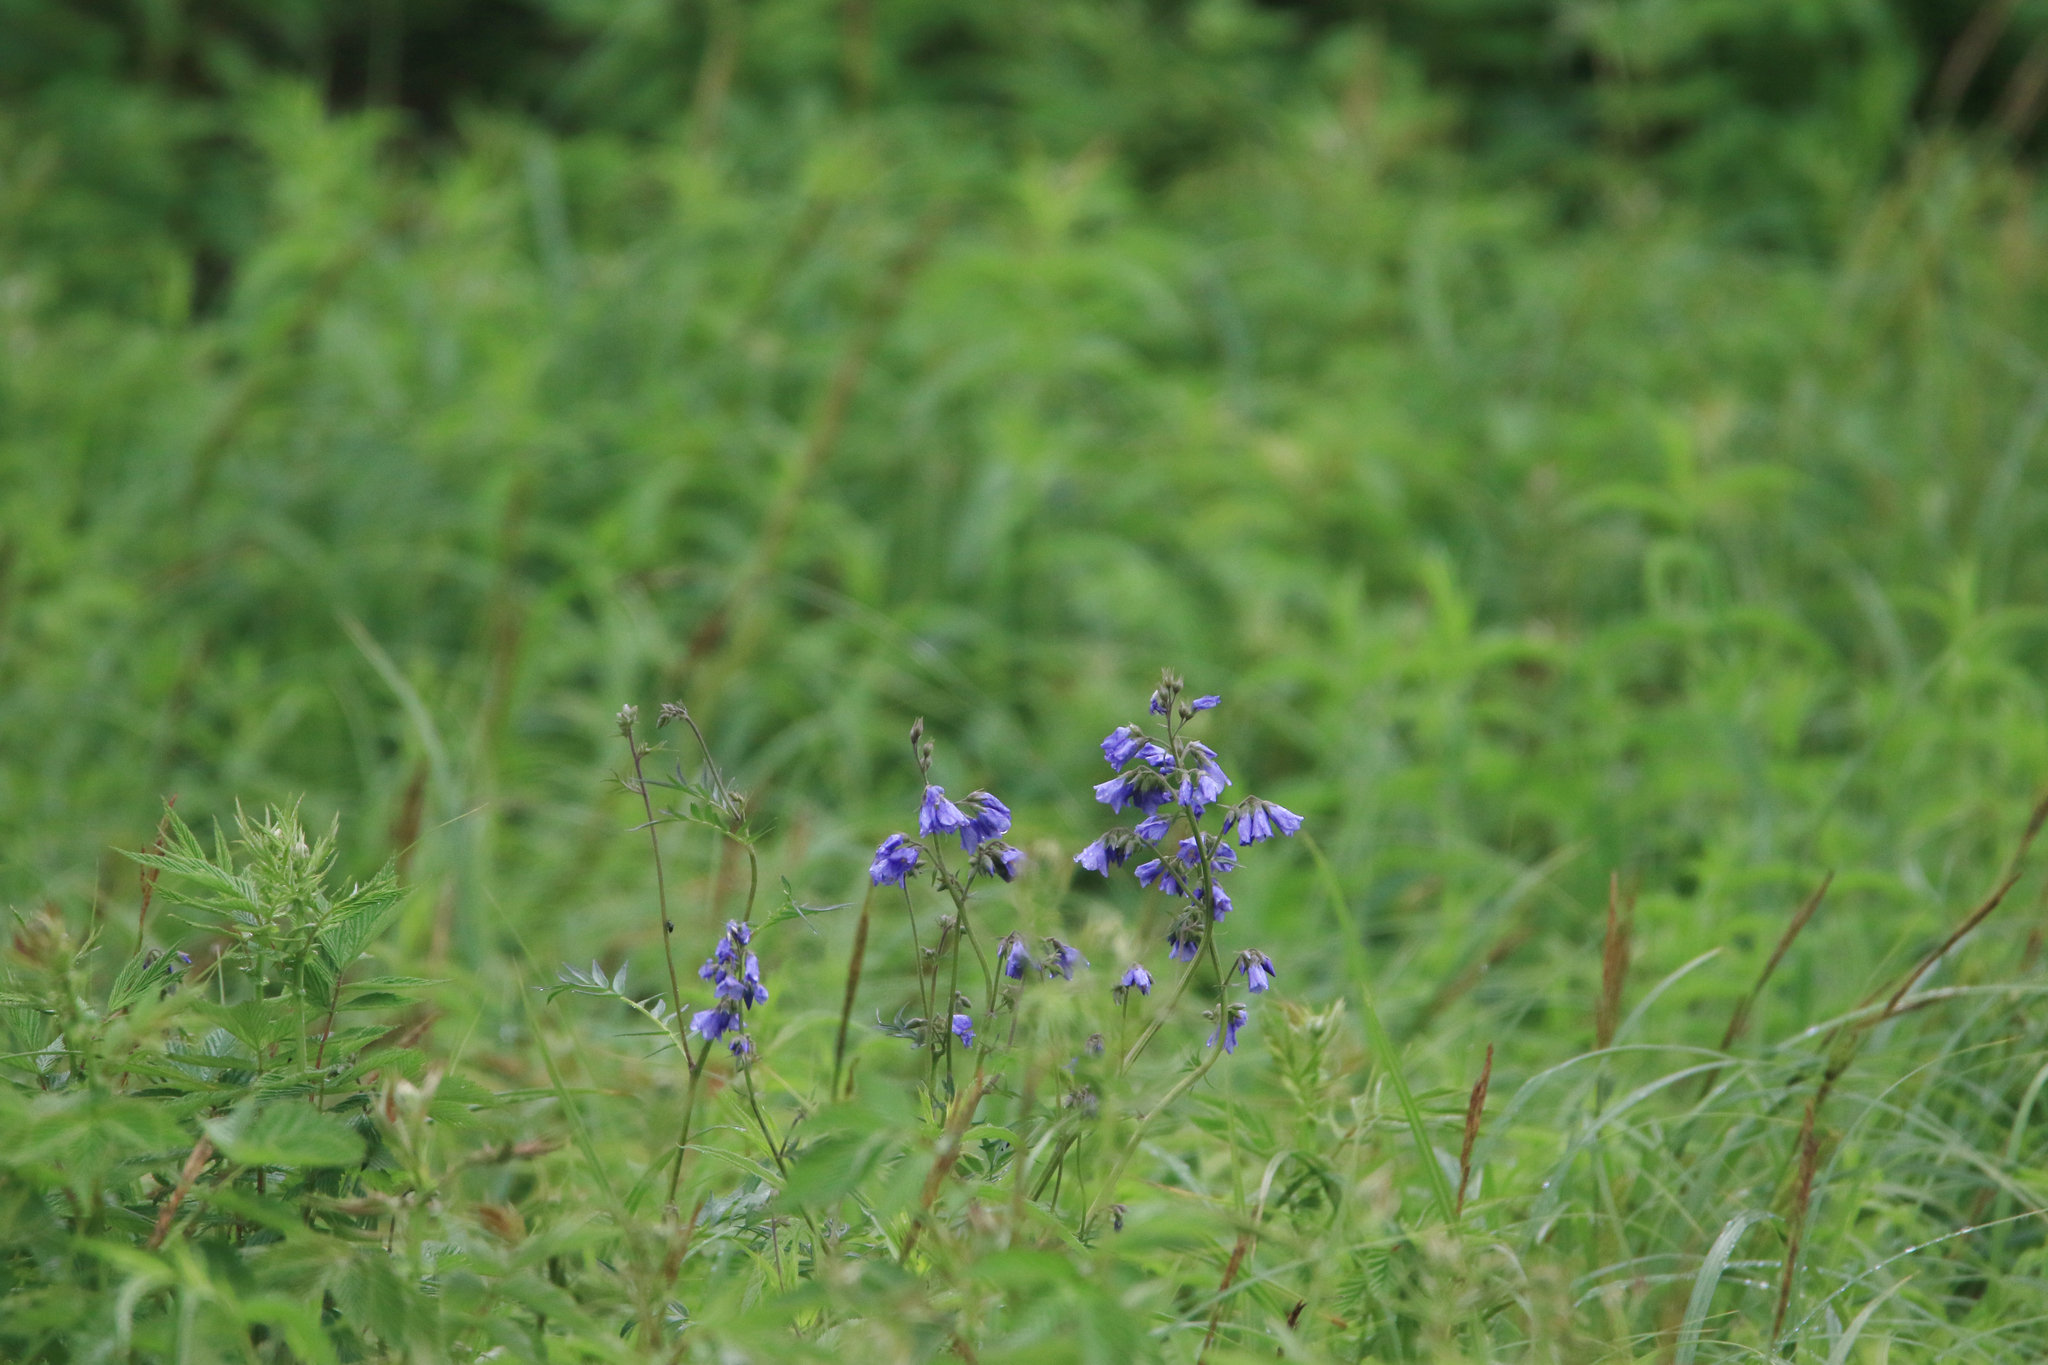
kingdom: Plantae
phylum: Tracheophyta
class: Magnoliopsida
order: Ericales
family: Polemoniaceae
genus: Polemonium
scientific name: Polemonium caeruleum
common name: Jacob's-ladder
